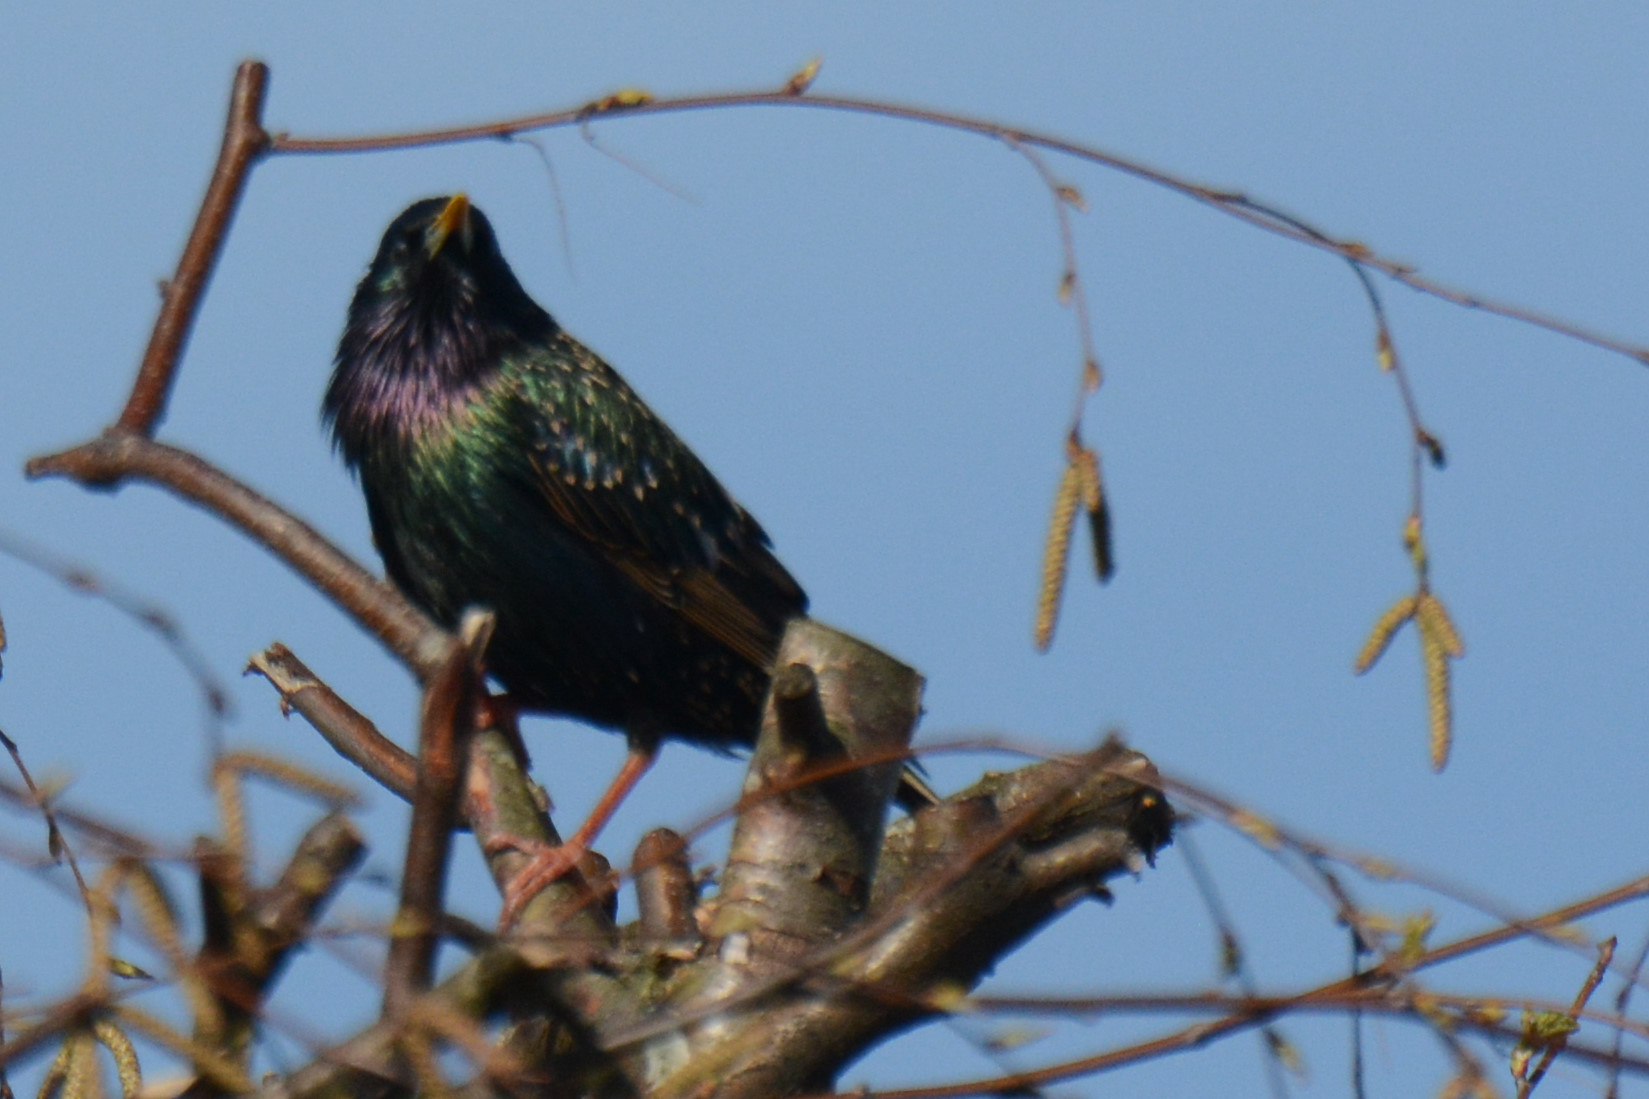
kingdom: Animalia
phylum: Chordata
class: Aves
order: Passeriformes
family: Sturnidae
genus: Sturnus
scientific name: Sturnus vulgaris
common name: Common starling
